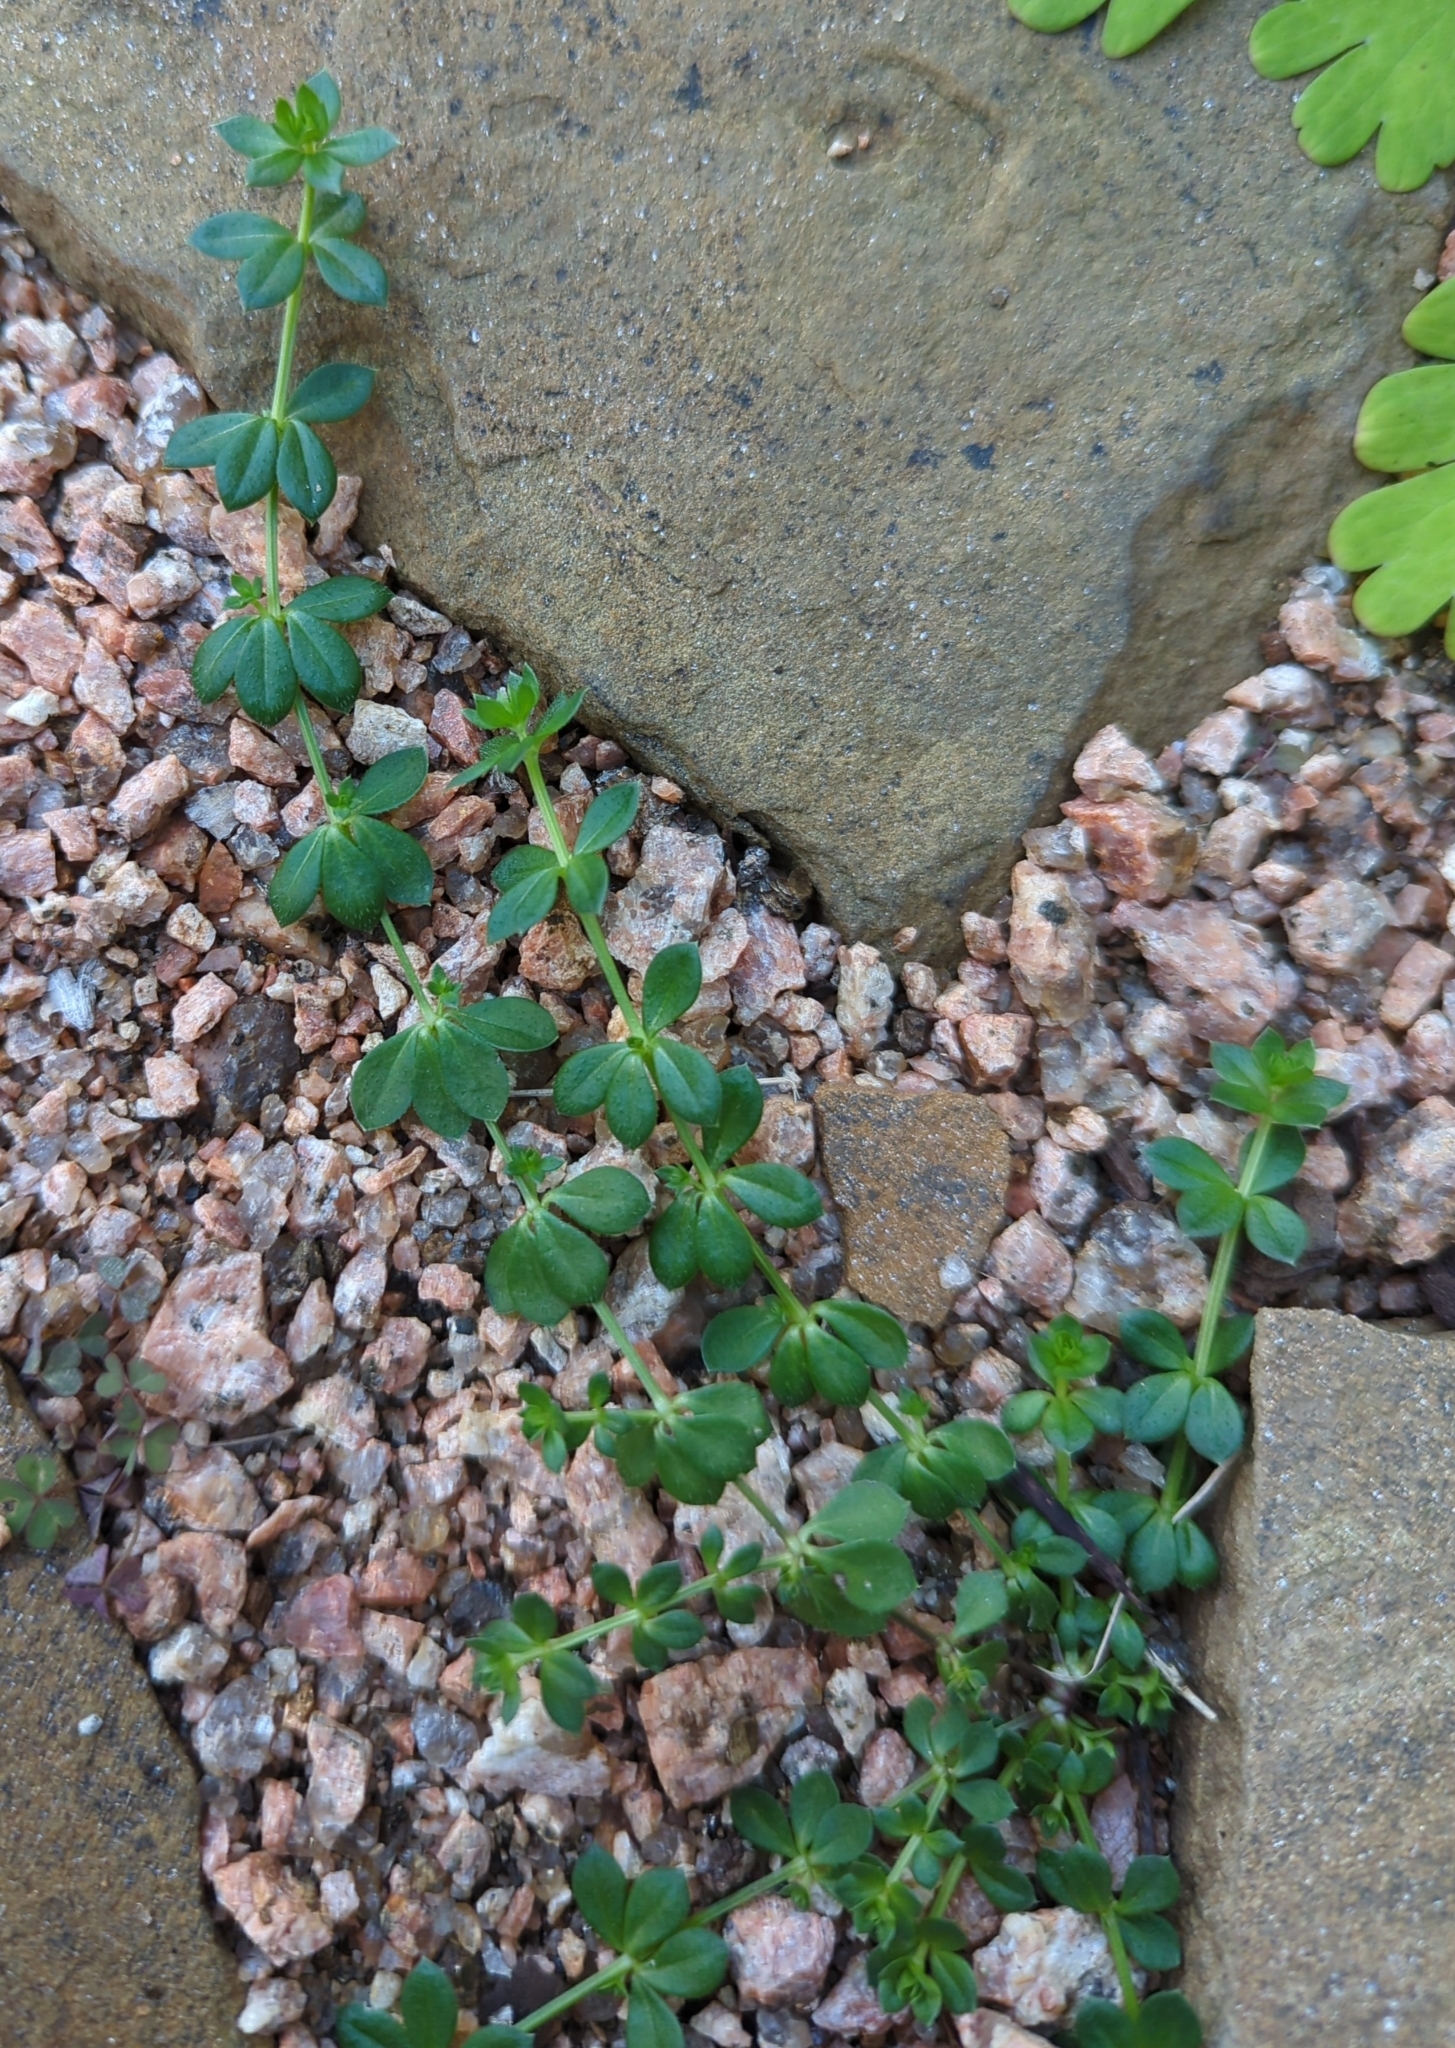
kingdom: Plantae
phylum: Tracheophyta
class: Magnoliopsida
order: Gentianales
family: Rubiaceae
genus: Sherardia
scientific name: Sherardia arvensis
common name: Field madder
